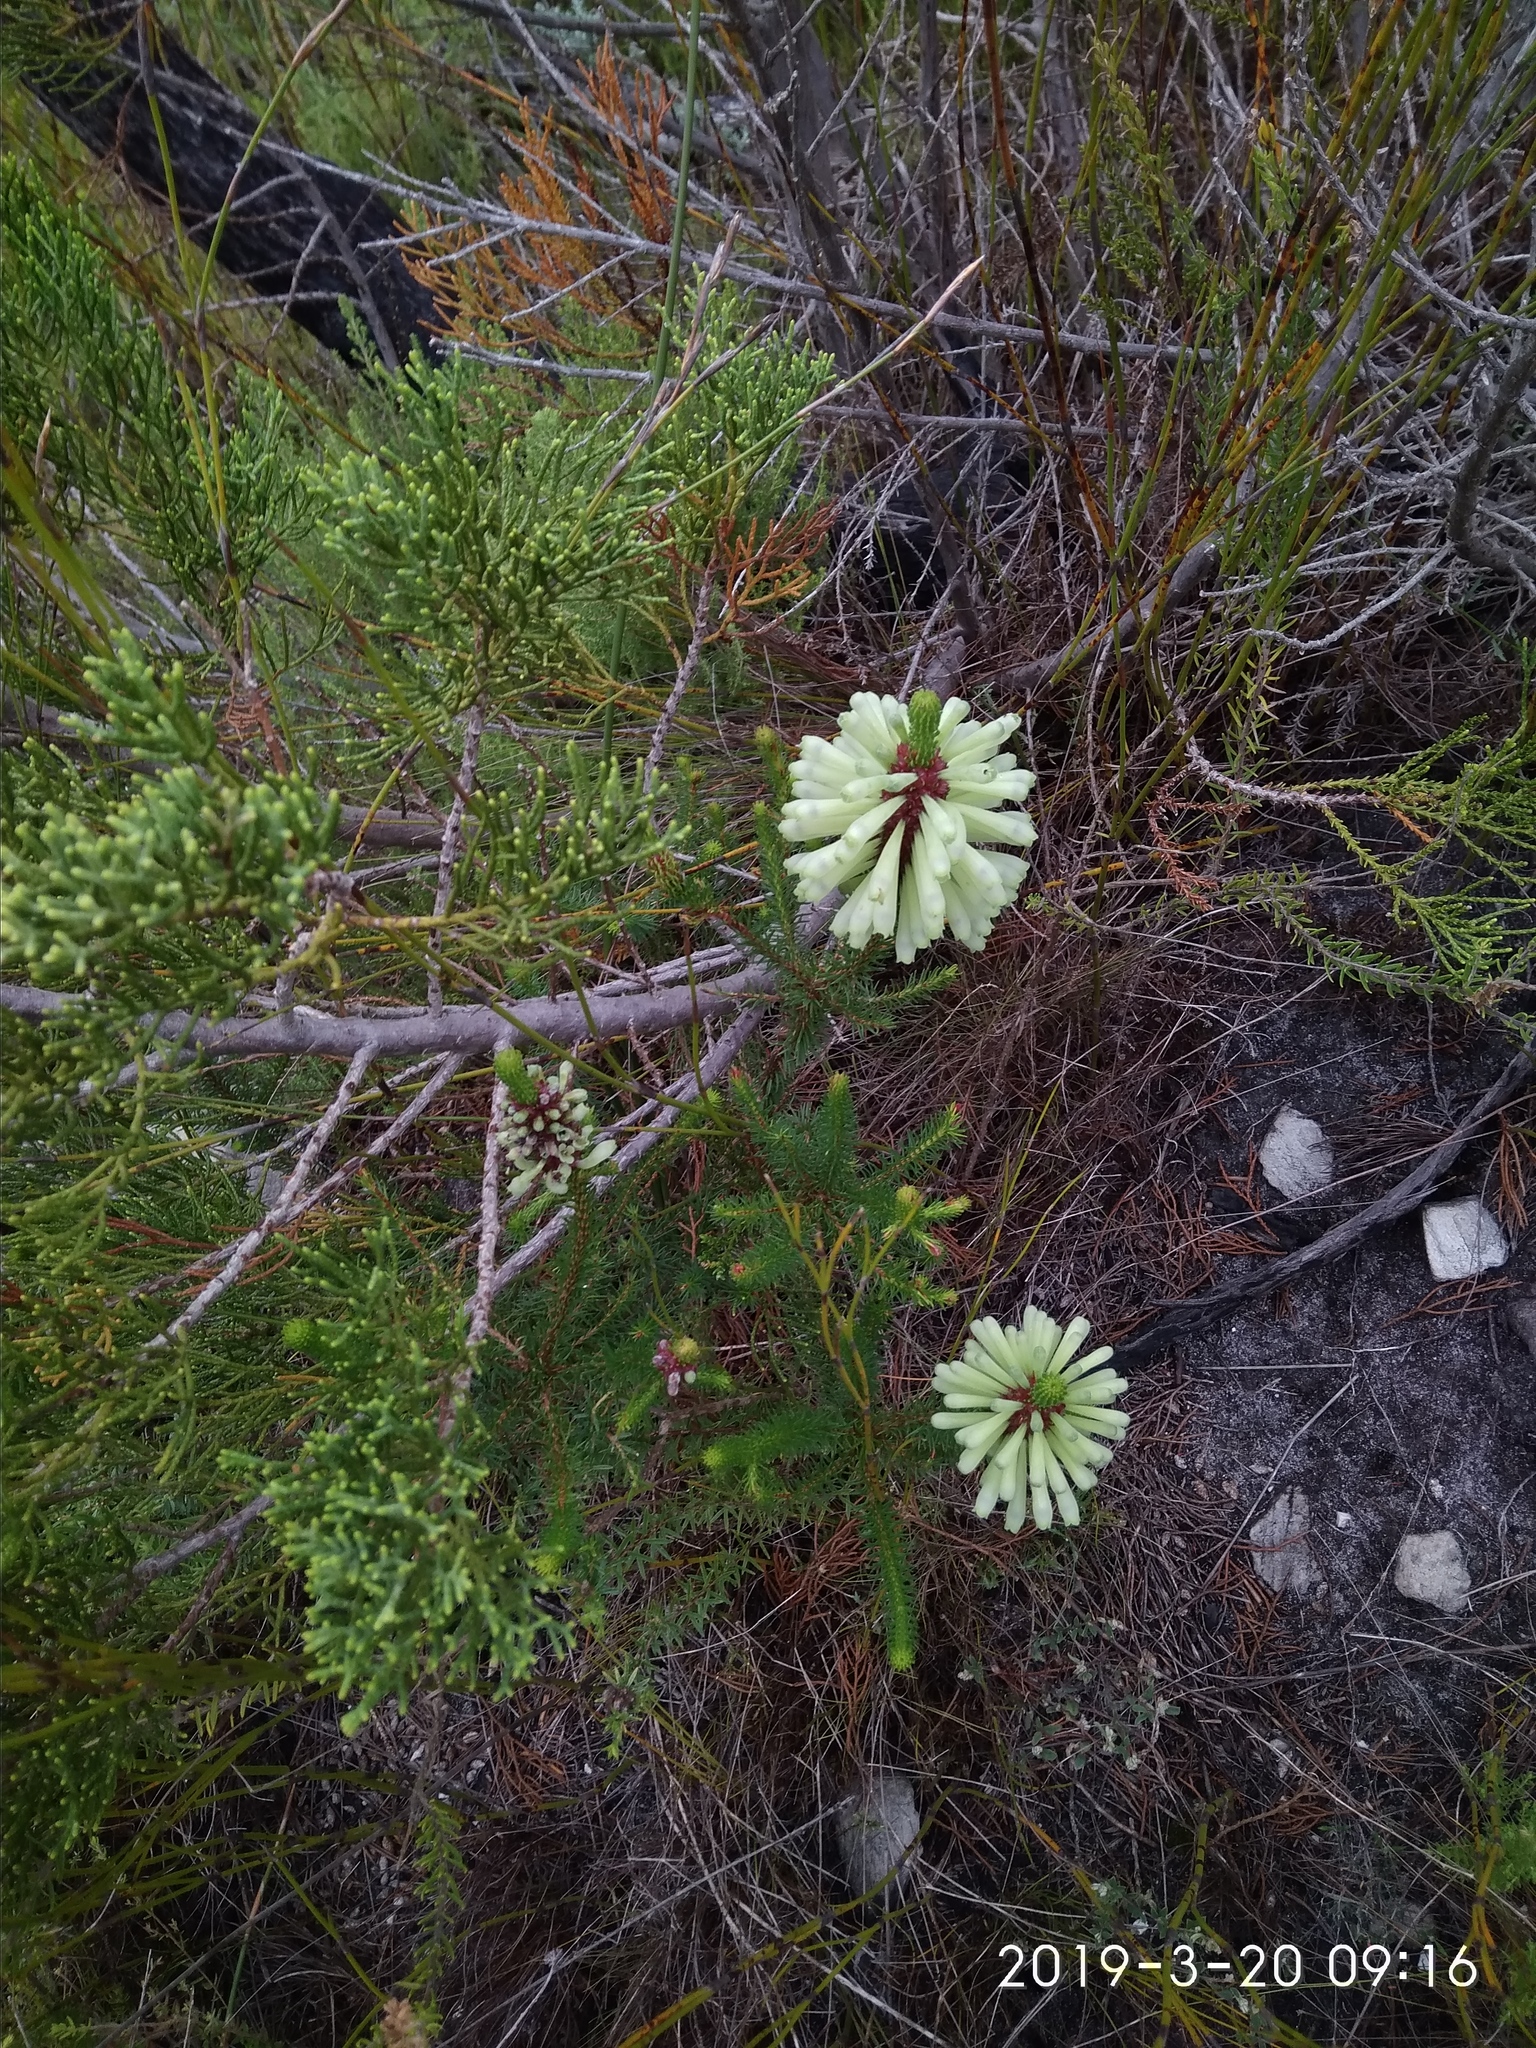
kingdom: Plantae
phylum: Tracheophyta
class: Magnoliopsida
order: Ericales
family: Ericaceae
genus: Erica
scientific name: Erica sessiliflora
